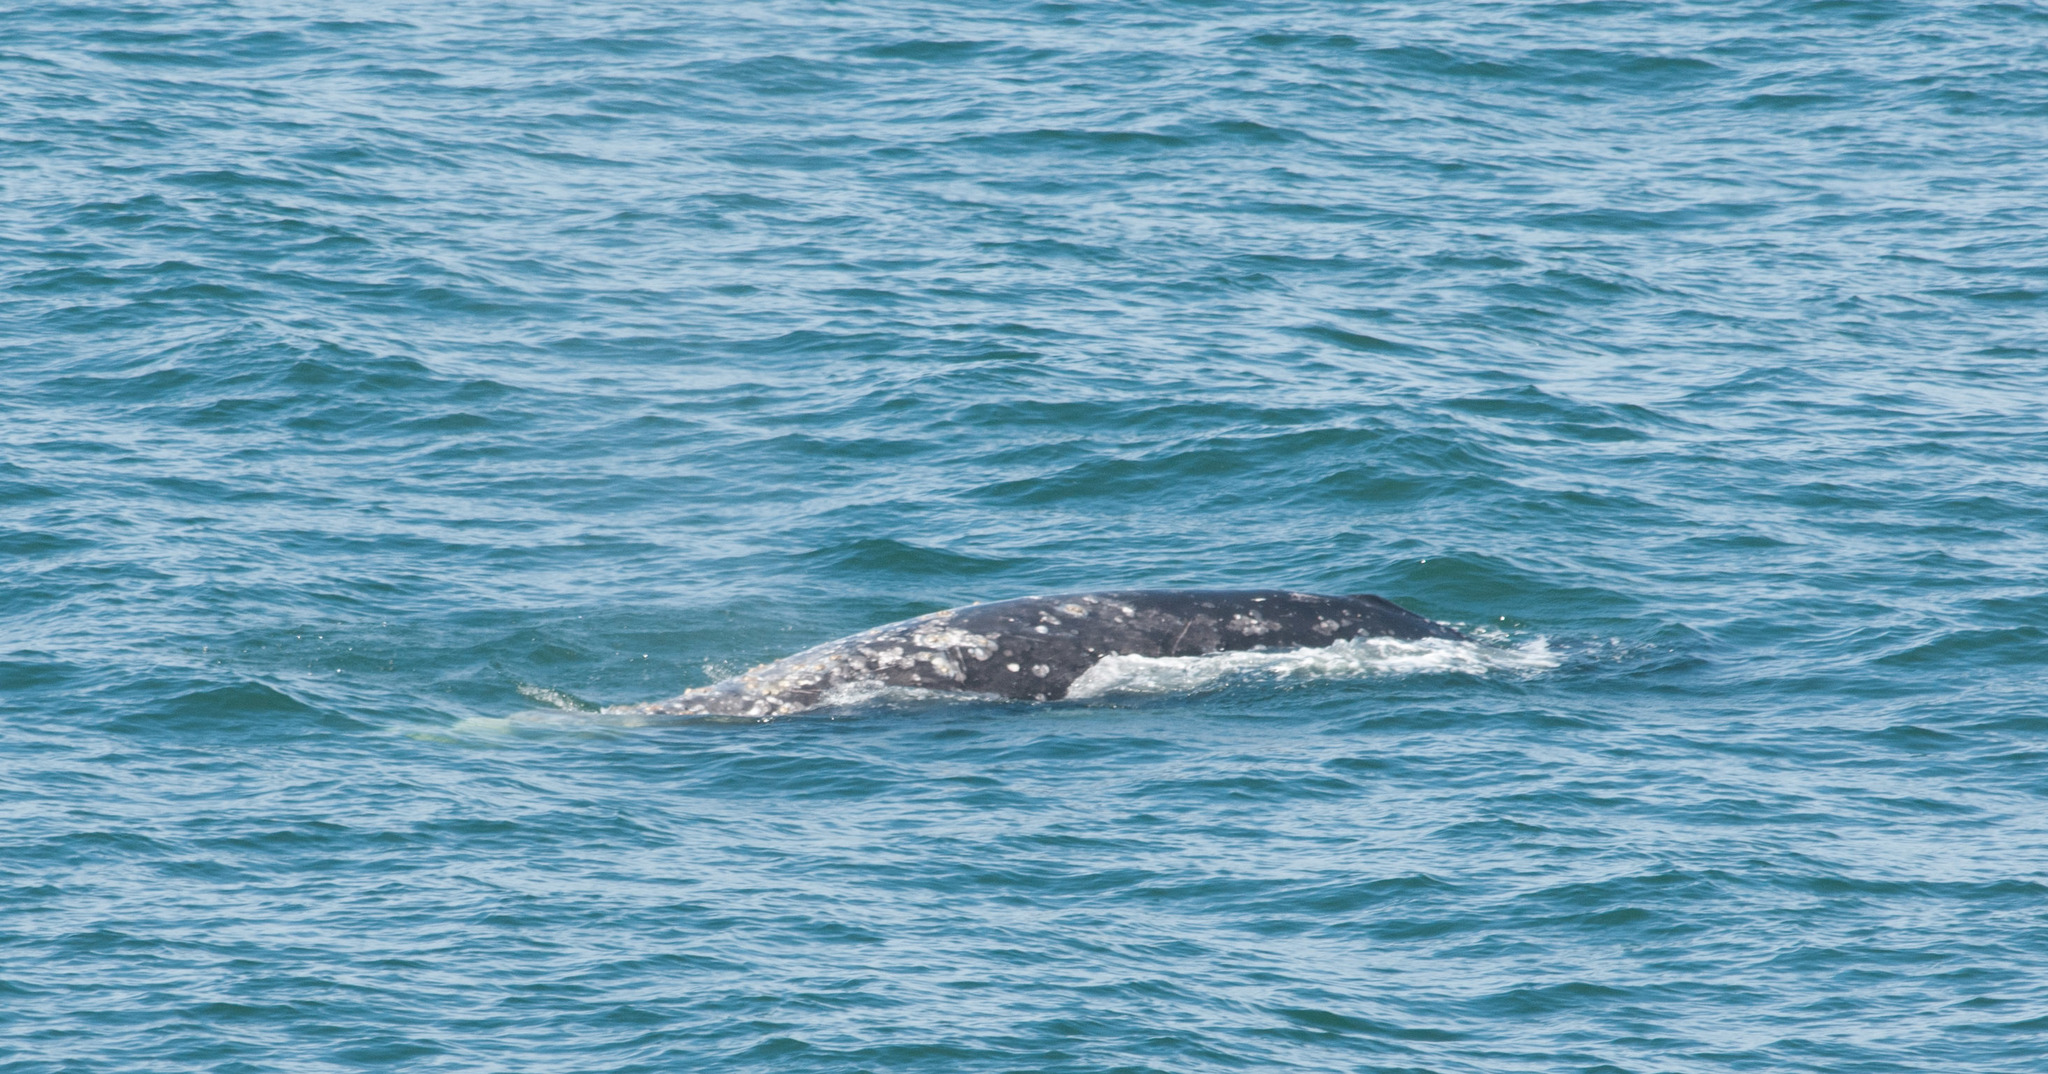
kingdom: Animalia
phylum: Chordata
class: Mammalia
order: Cetacea
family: Eschrichtiidae
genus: Eschrichtius
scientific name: Eschrichtius robustus
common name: Gray whale
